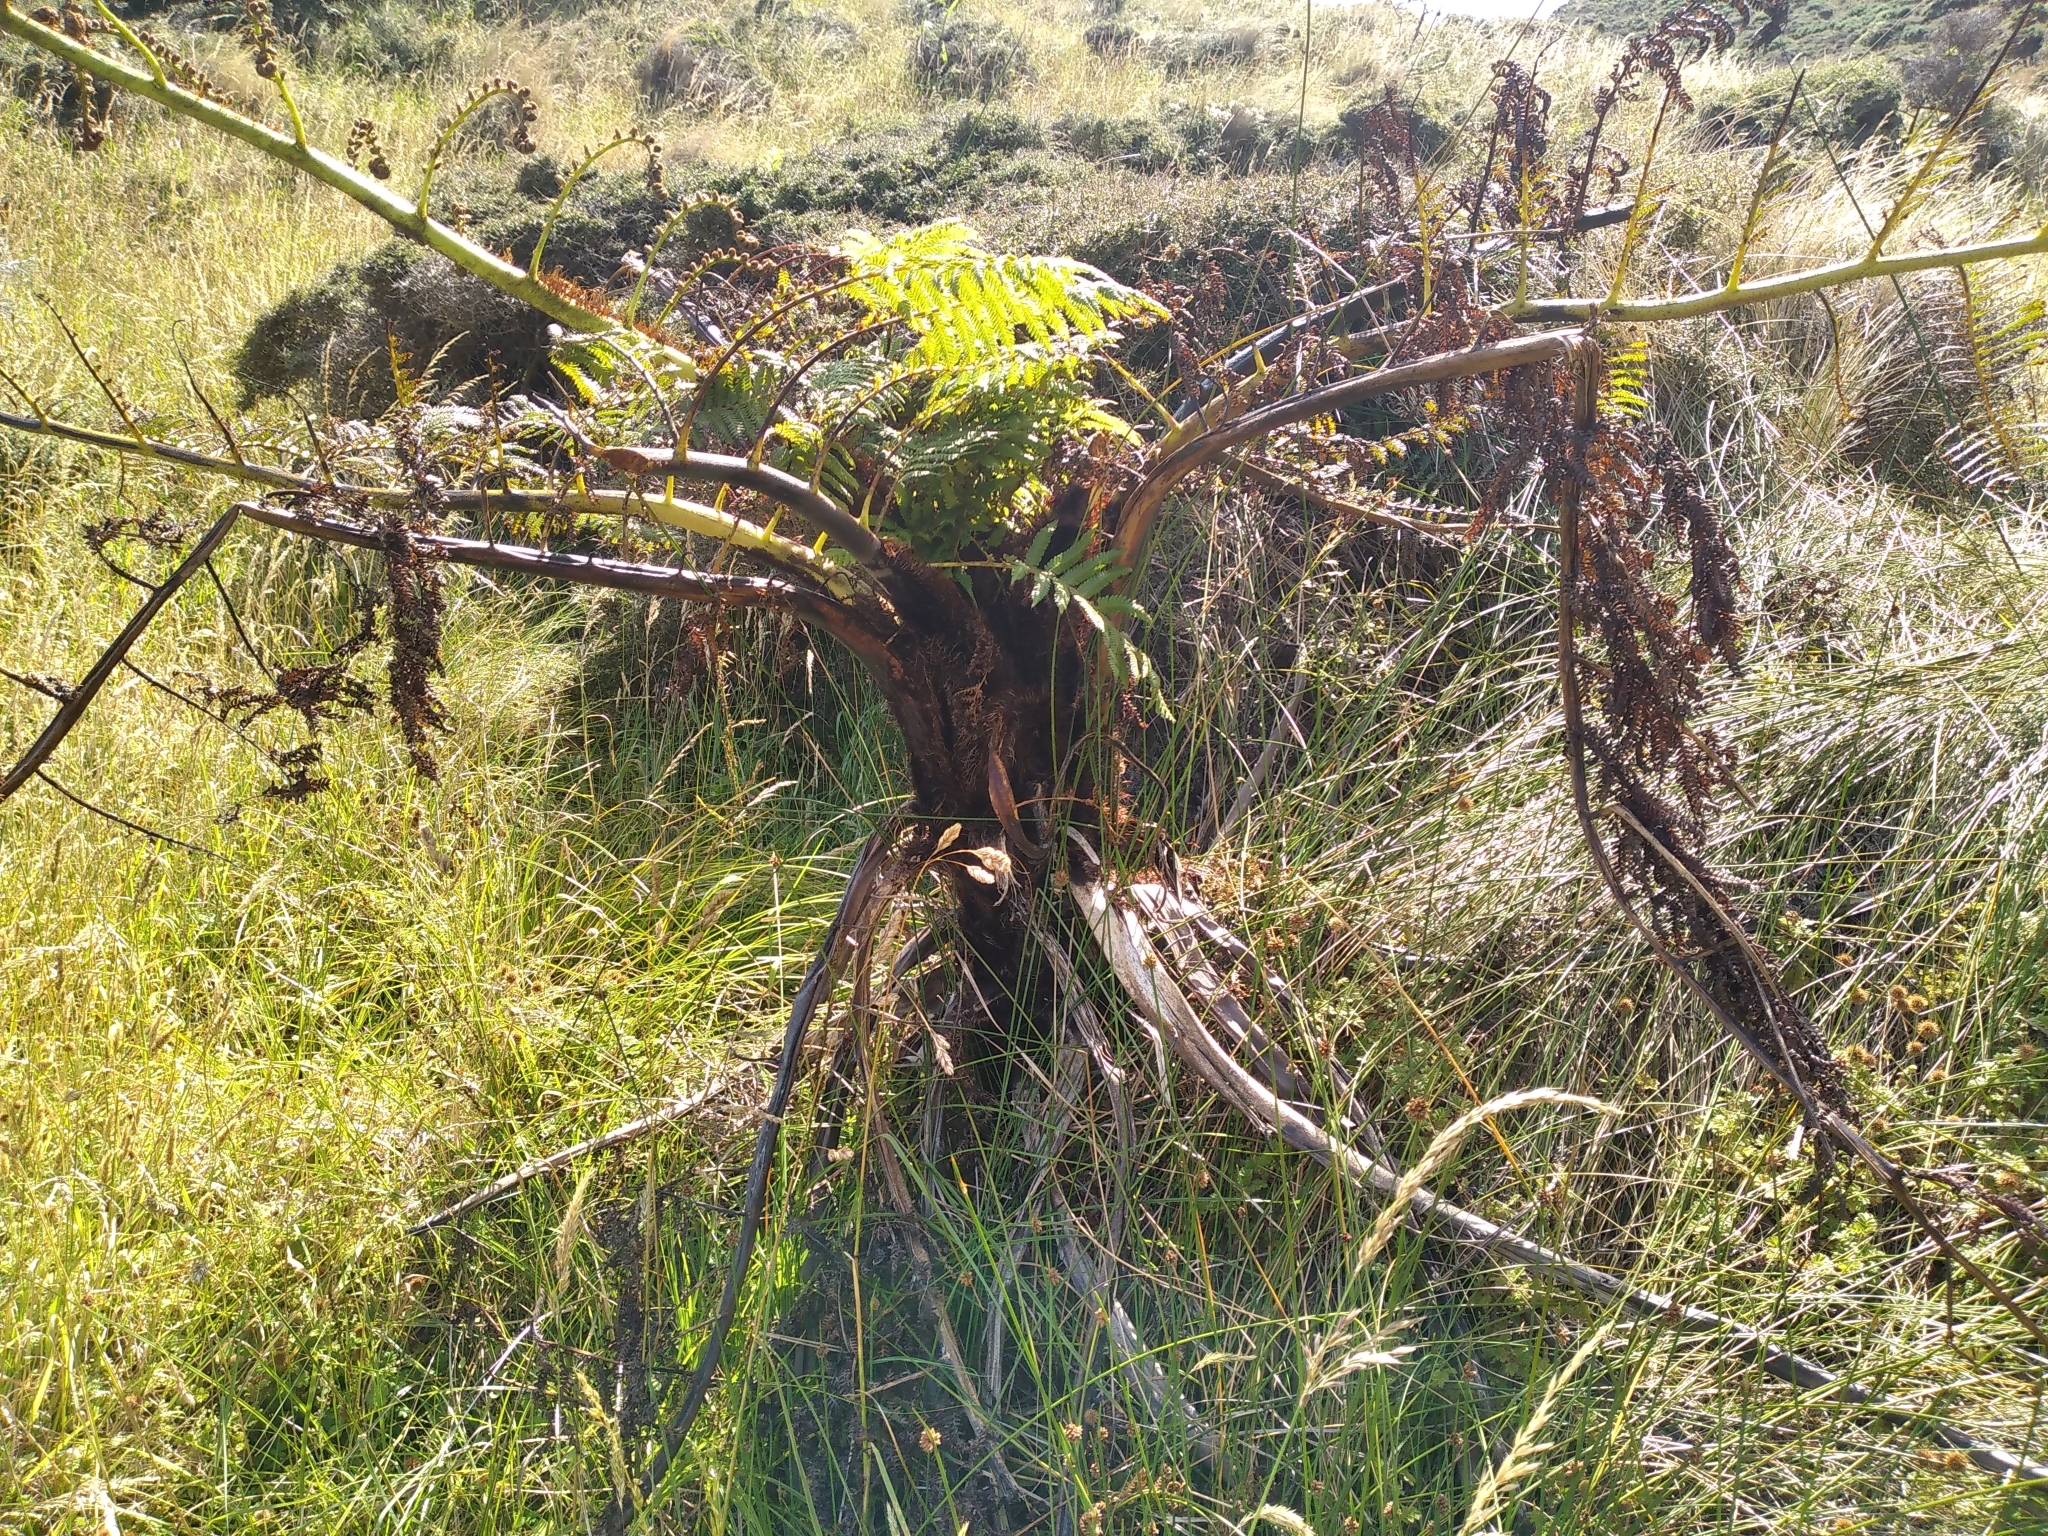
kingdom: Plantae
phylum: Tracheophyta
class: Polypodiopsida
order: Cyatheales
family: Cyatheaceae
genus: Sphaeropteris
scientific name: Sphaeropteris medullaris
